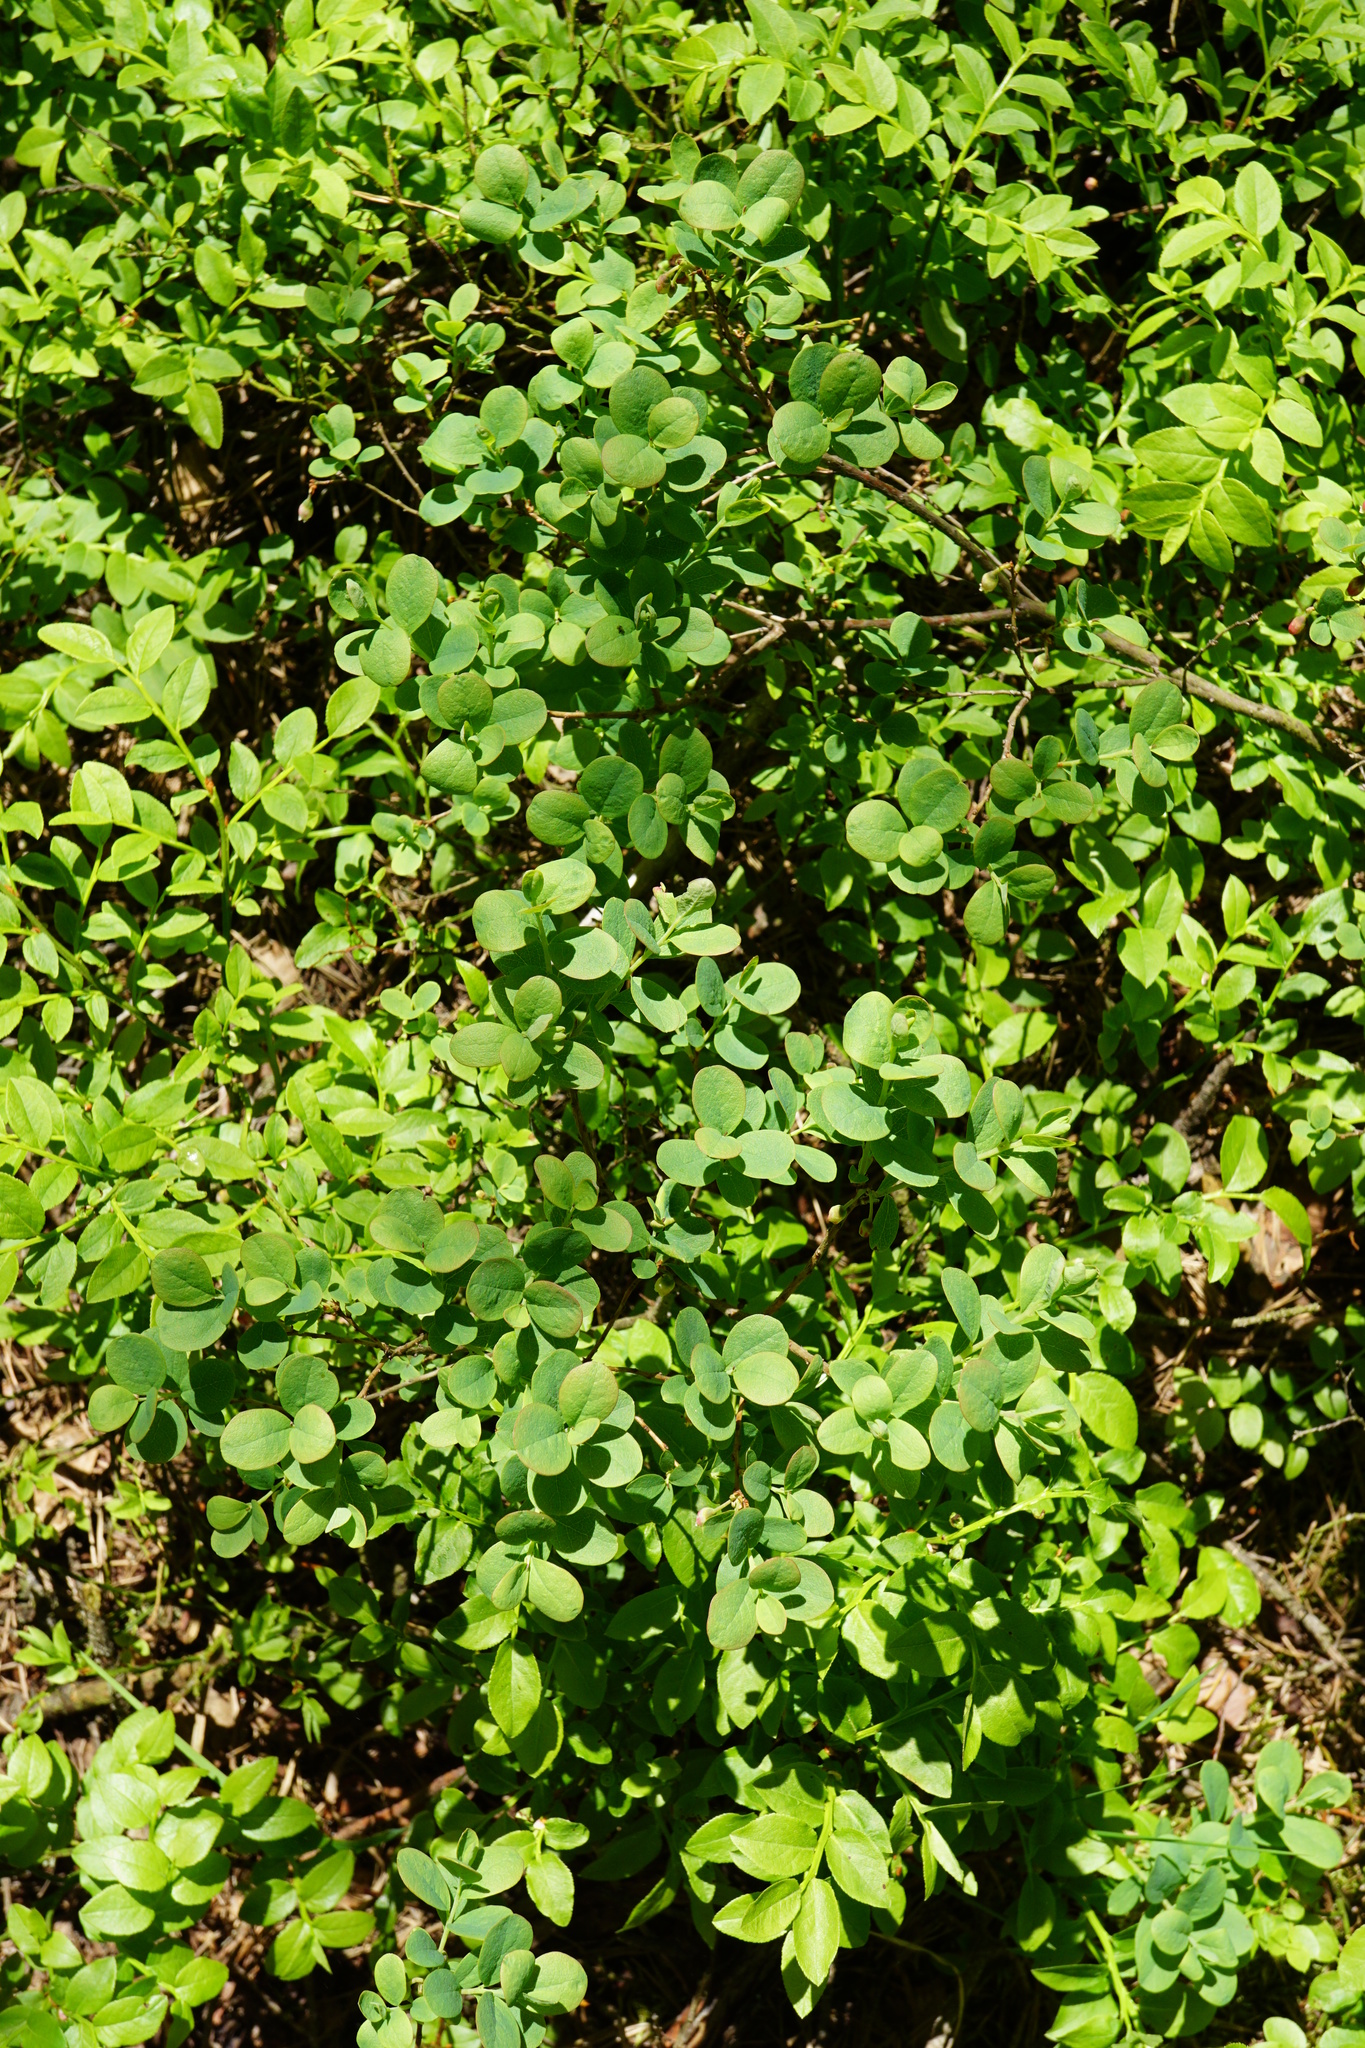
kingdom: Plantae
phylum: Tracheophyta
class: Magnoliopsida
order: Ericales
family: Ericaceae
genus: Vaccinium
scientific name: Vaccinium uliginosum
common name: Bog bilberry
